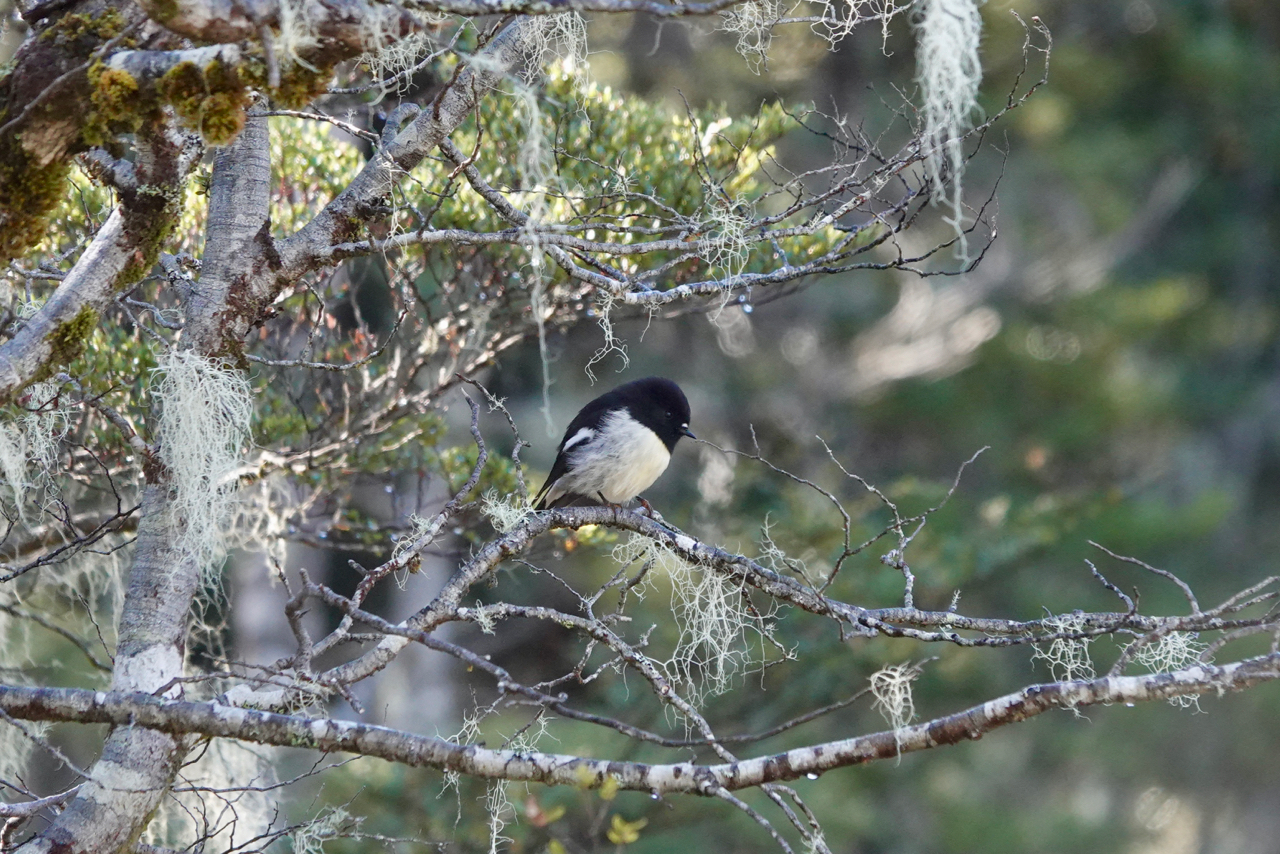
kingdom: Animalia
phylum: Chordata
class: Aves
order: Passeriformes
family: Petroicidae
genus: Petroica
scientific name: Petroica macrocephala
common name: Tomtit
